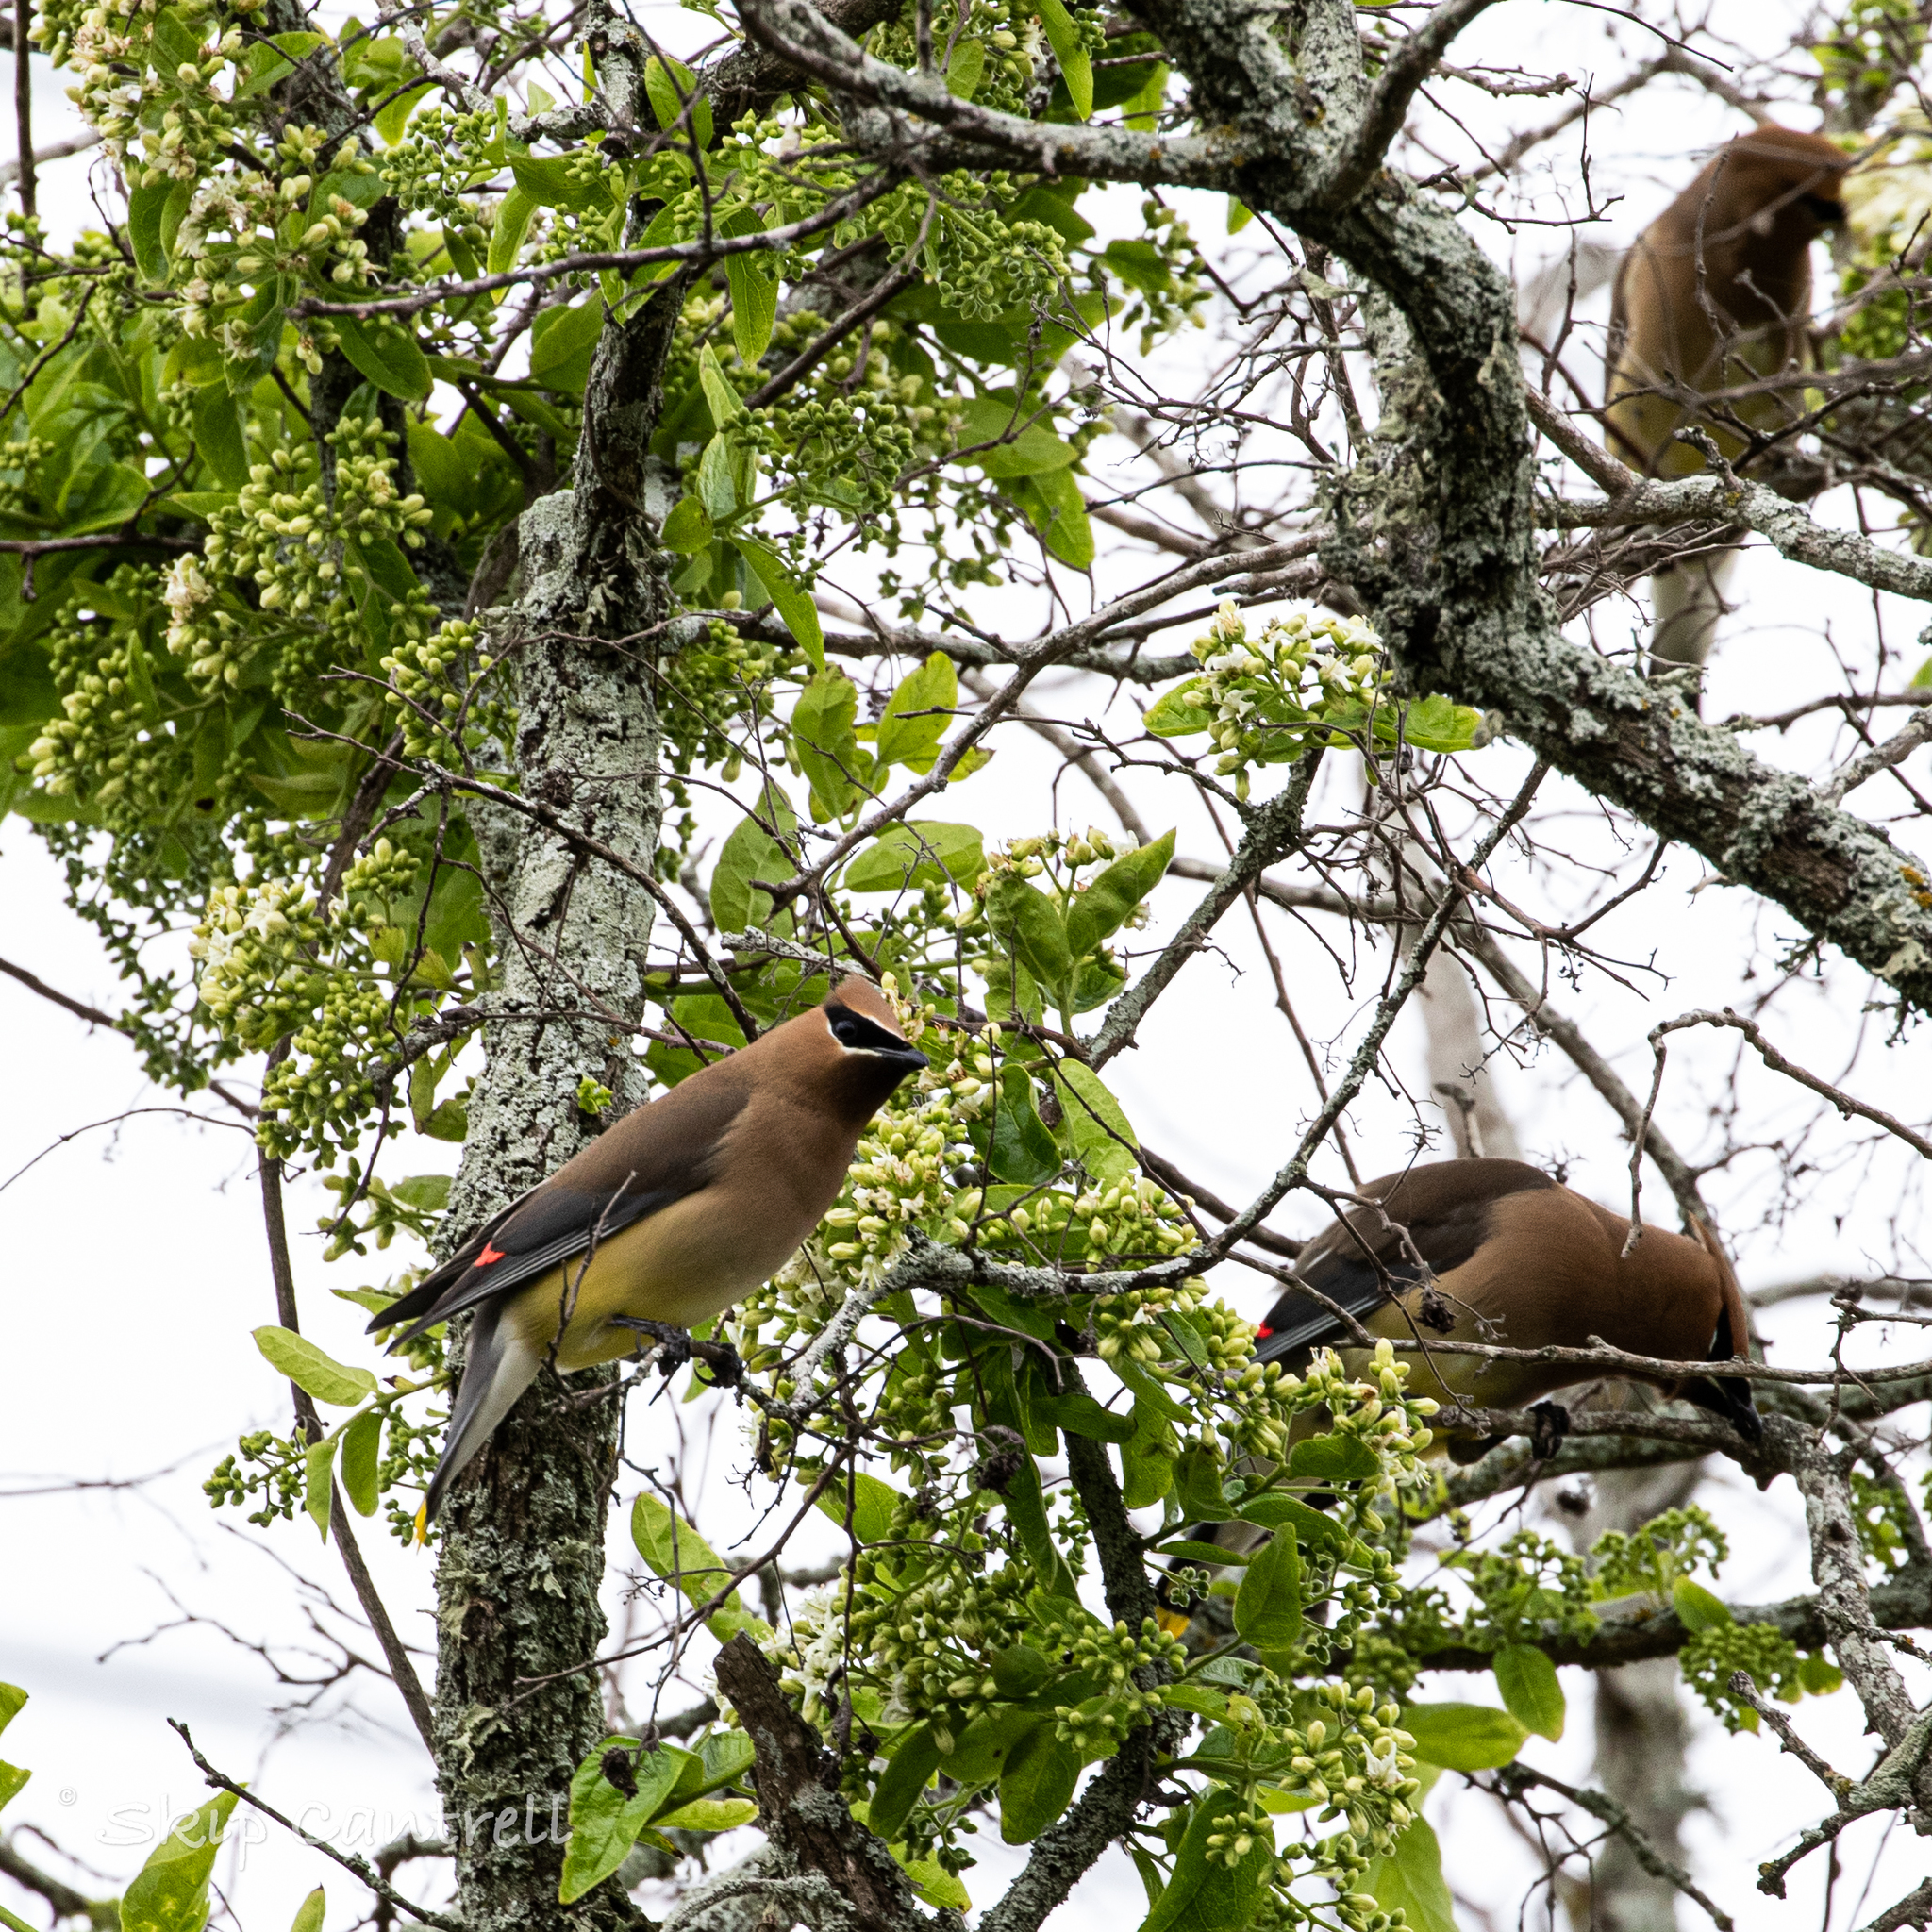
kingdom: Animalia
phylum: Chordata
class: Aves
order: Passeriformes
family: Bombycillidae
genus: Bombycilla
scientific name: Bombycilla cedrorum
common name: Cedar waxwing
